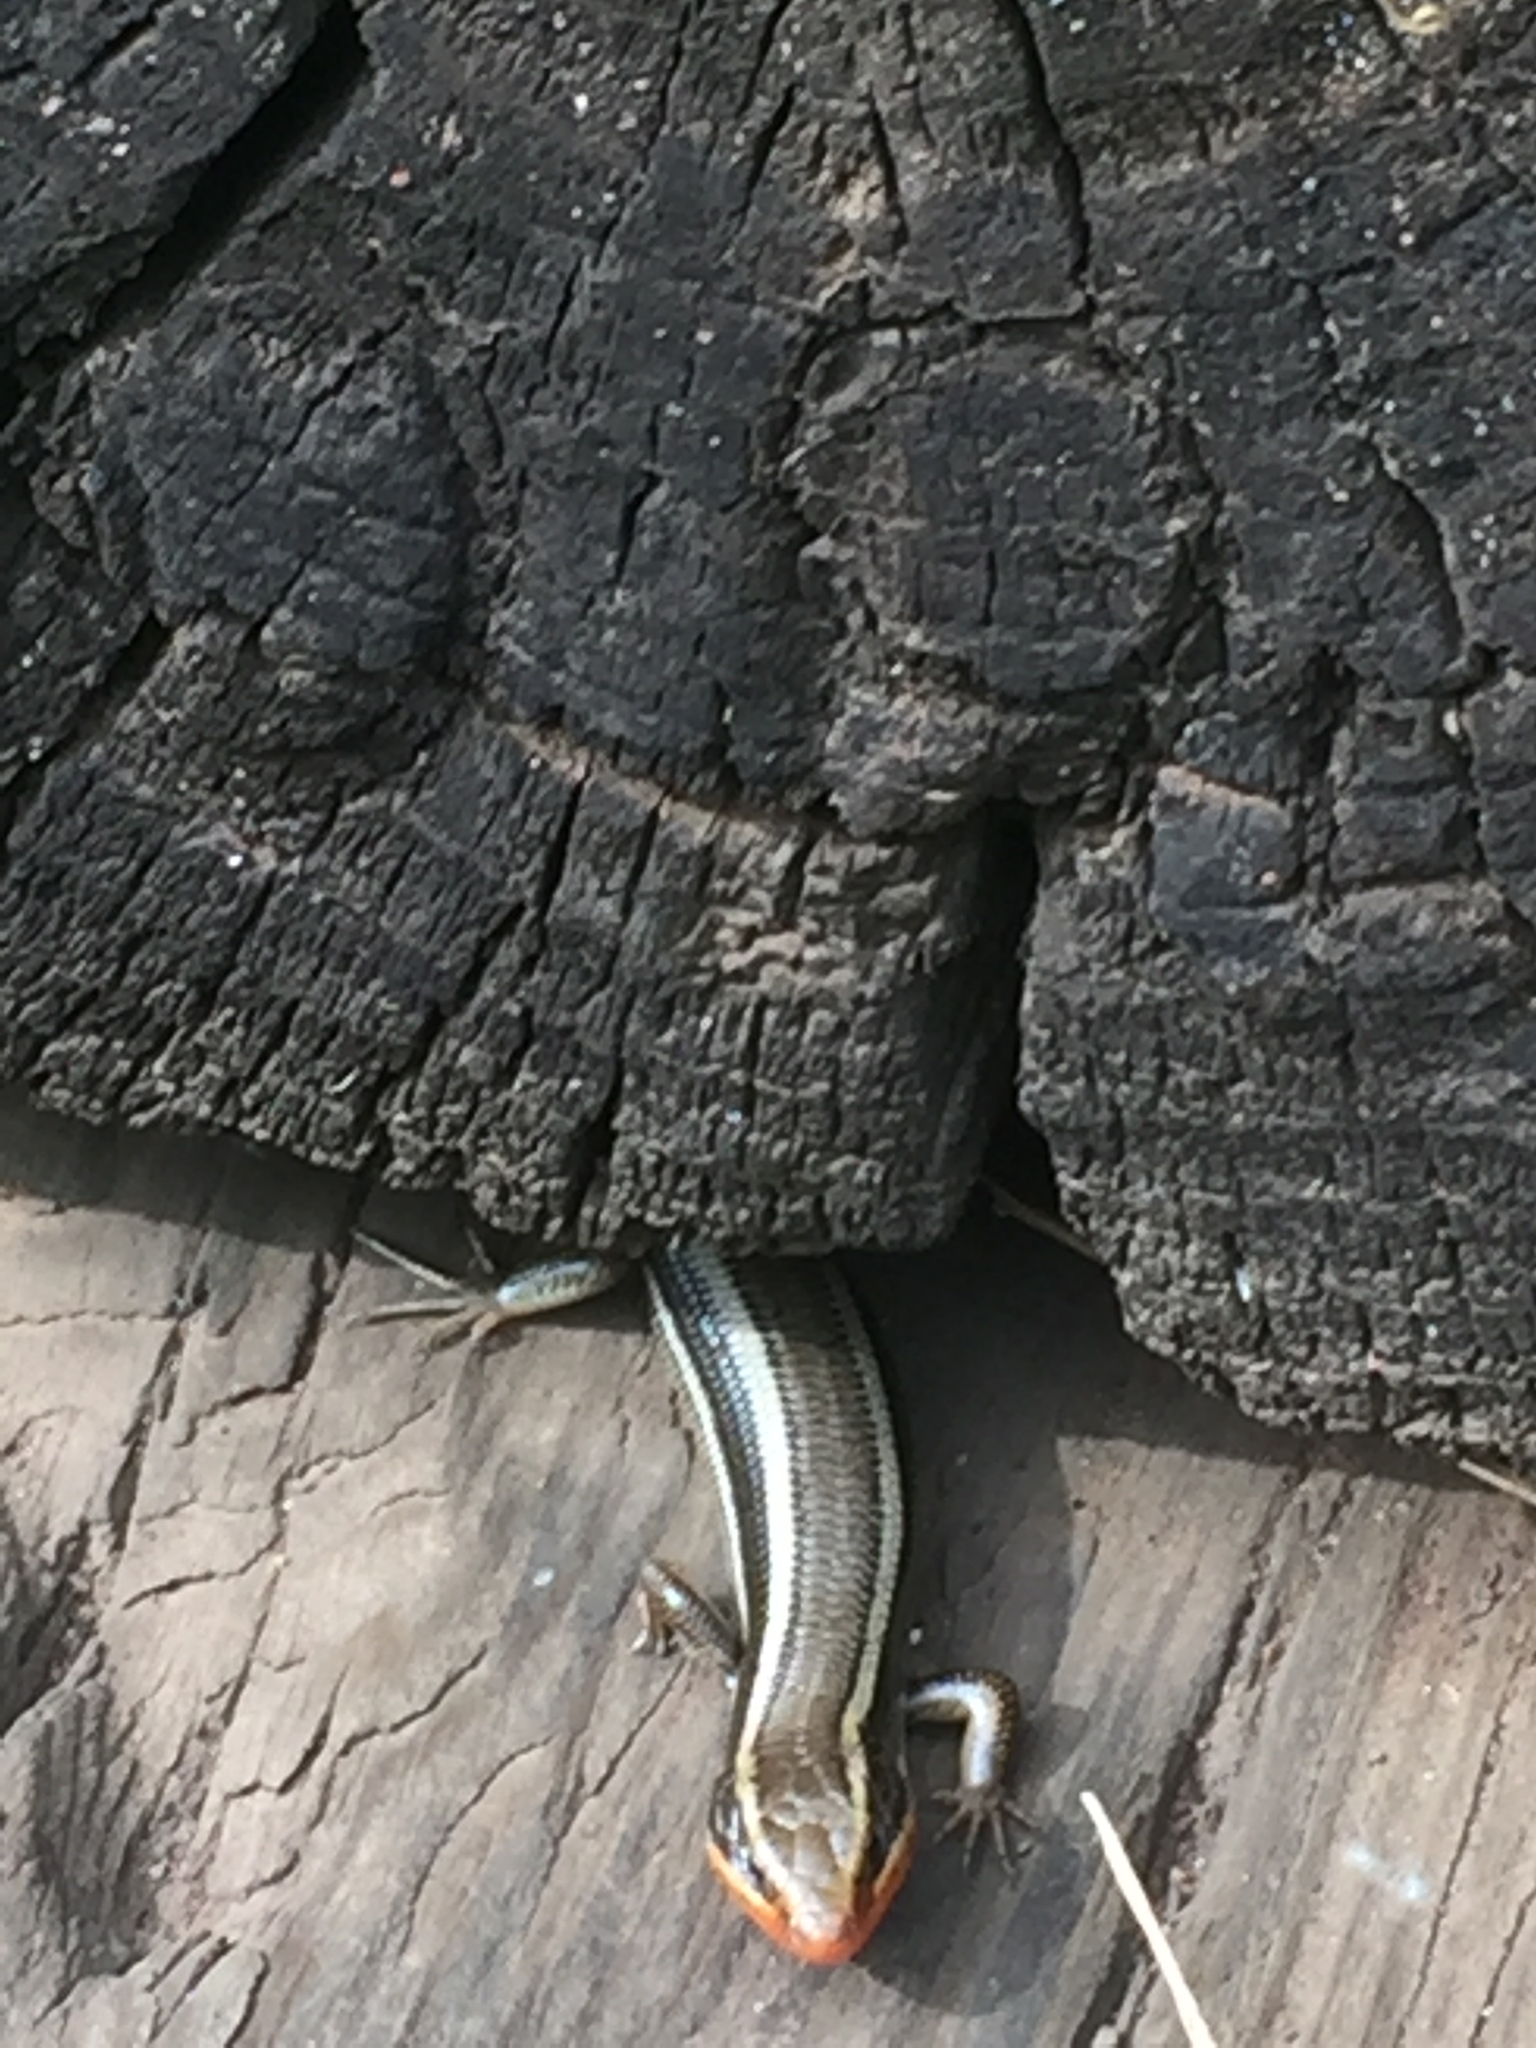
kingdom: Animalia
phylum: Chordata
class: Squamata
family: Scincidae
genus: Plestiodon
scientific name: Plestiodon skiltonianus
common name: Coronado island skink [interparietalis]
